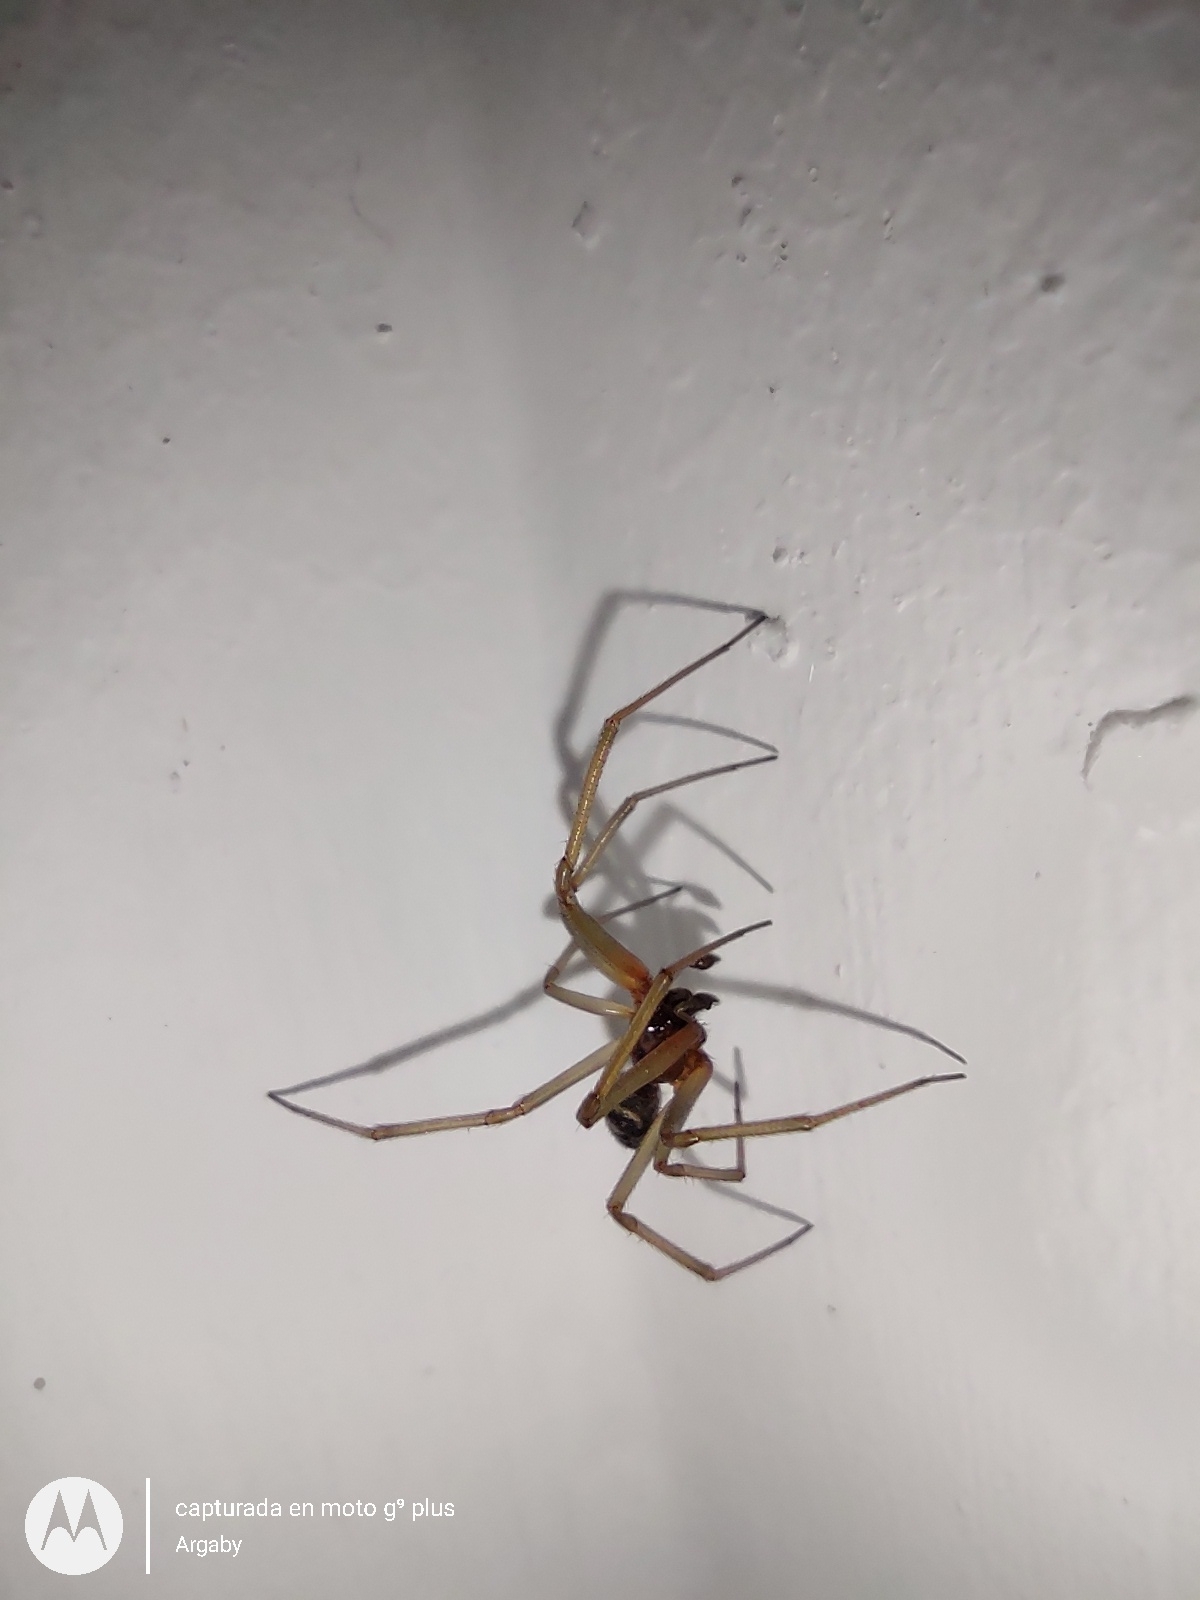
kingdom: Animalia
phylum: Arthropoda
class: Arachnida
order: Araneae
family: Theridiidae
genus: Steatoda
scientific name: Steatoda grossa
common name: False black widow
